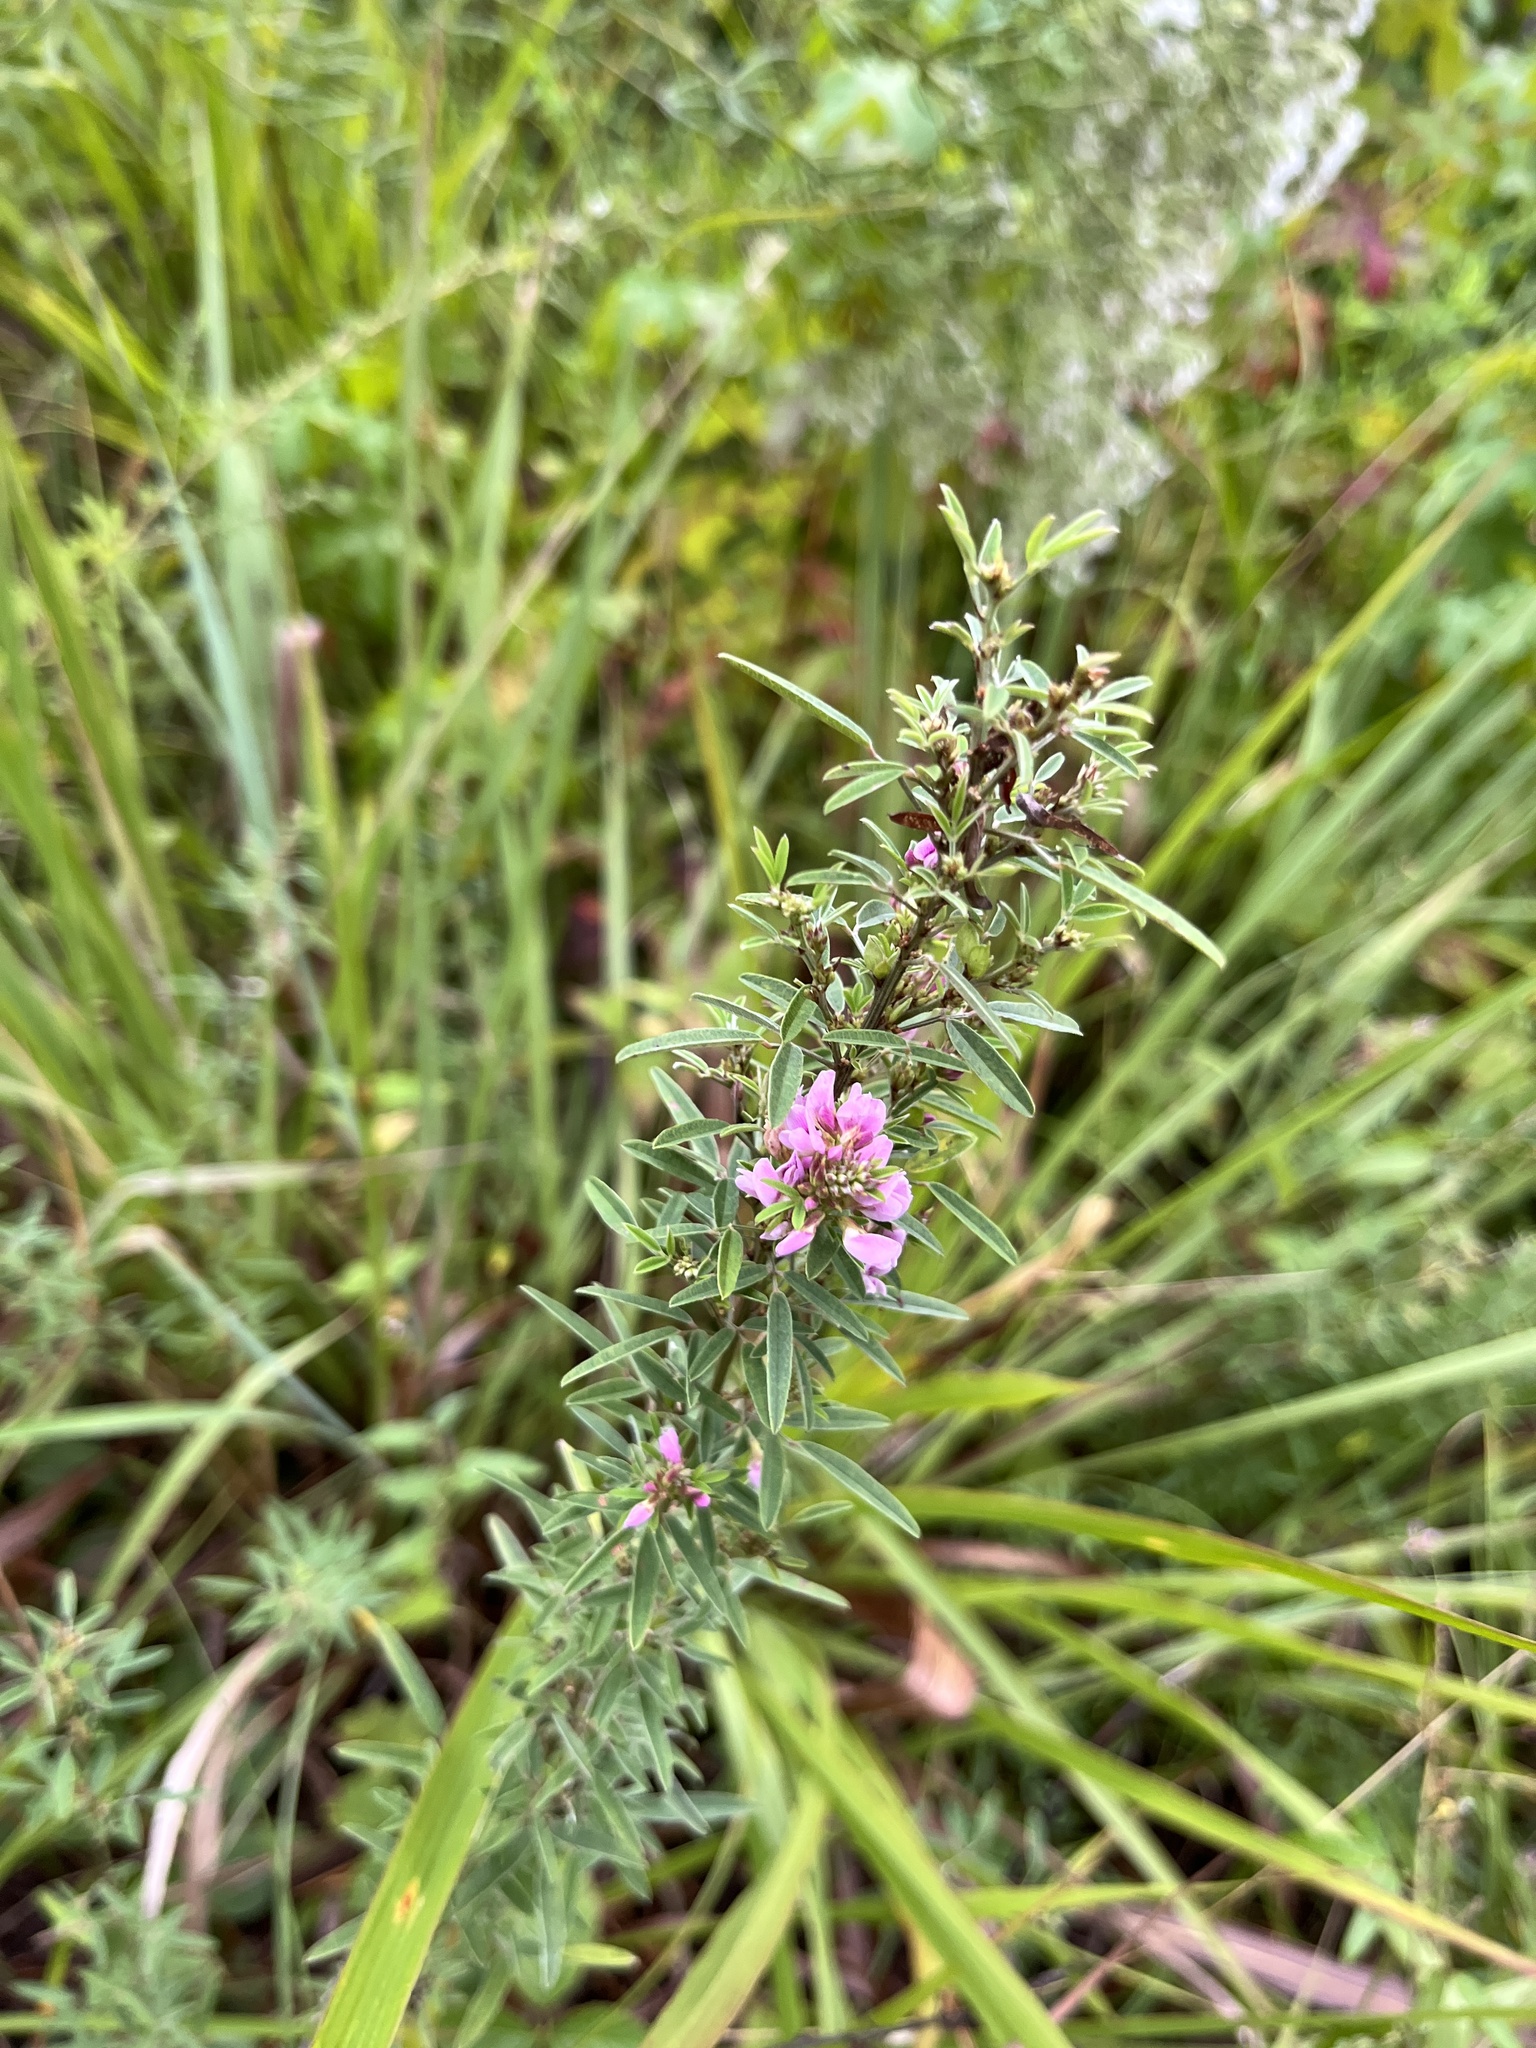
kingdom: Plantae
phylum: Tracheophyta
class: Magnoliopsida
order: Fabales
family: Fabaceae
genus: Lespedeza
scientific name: Lespedeza virginica
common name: Slender bush-clover
